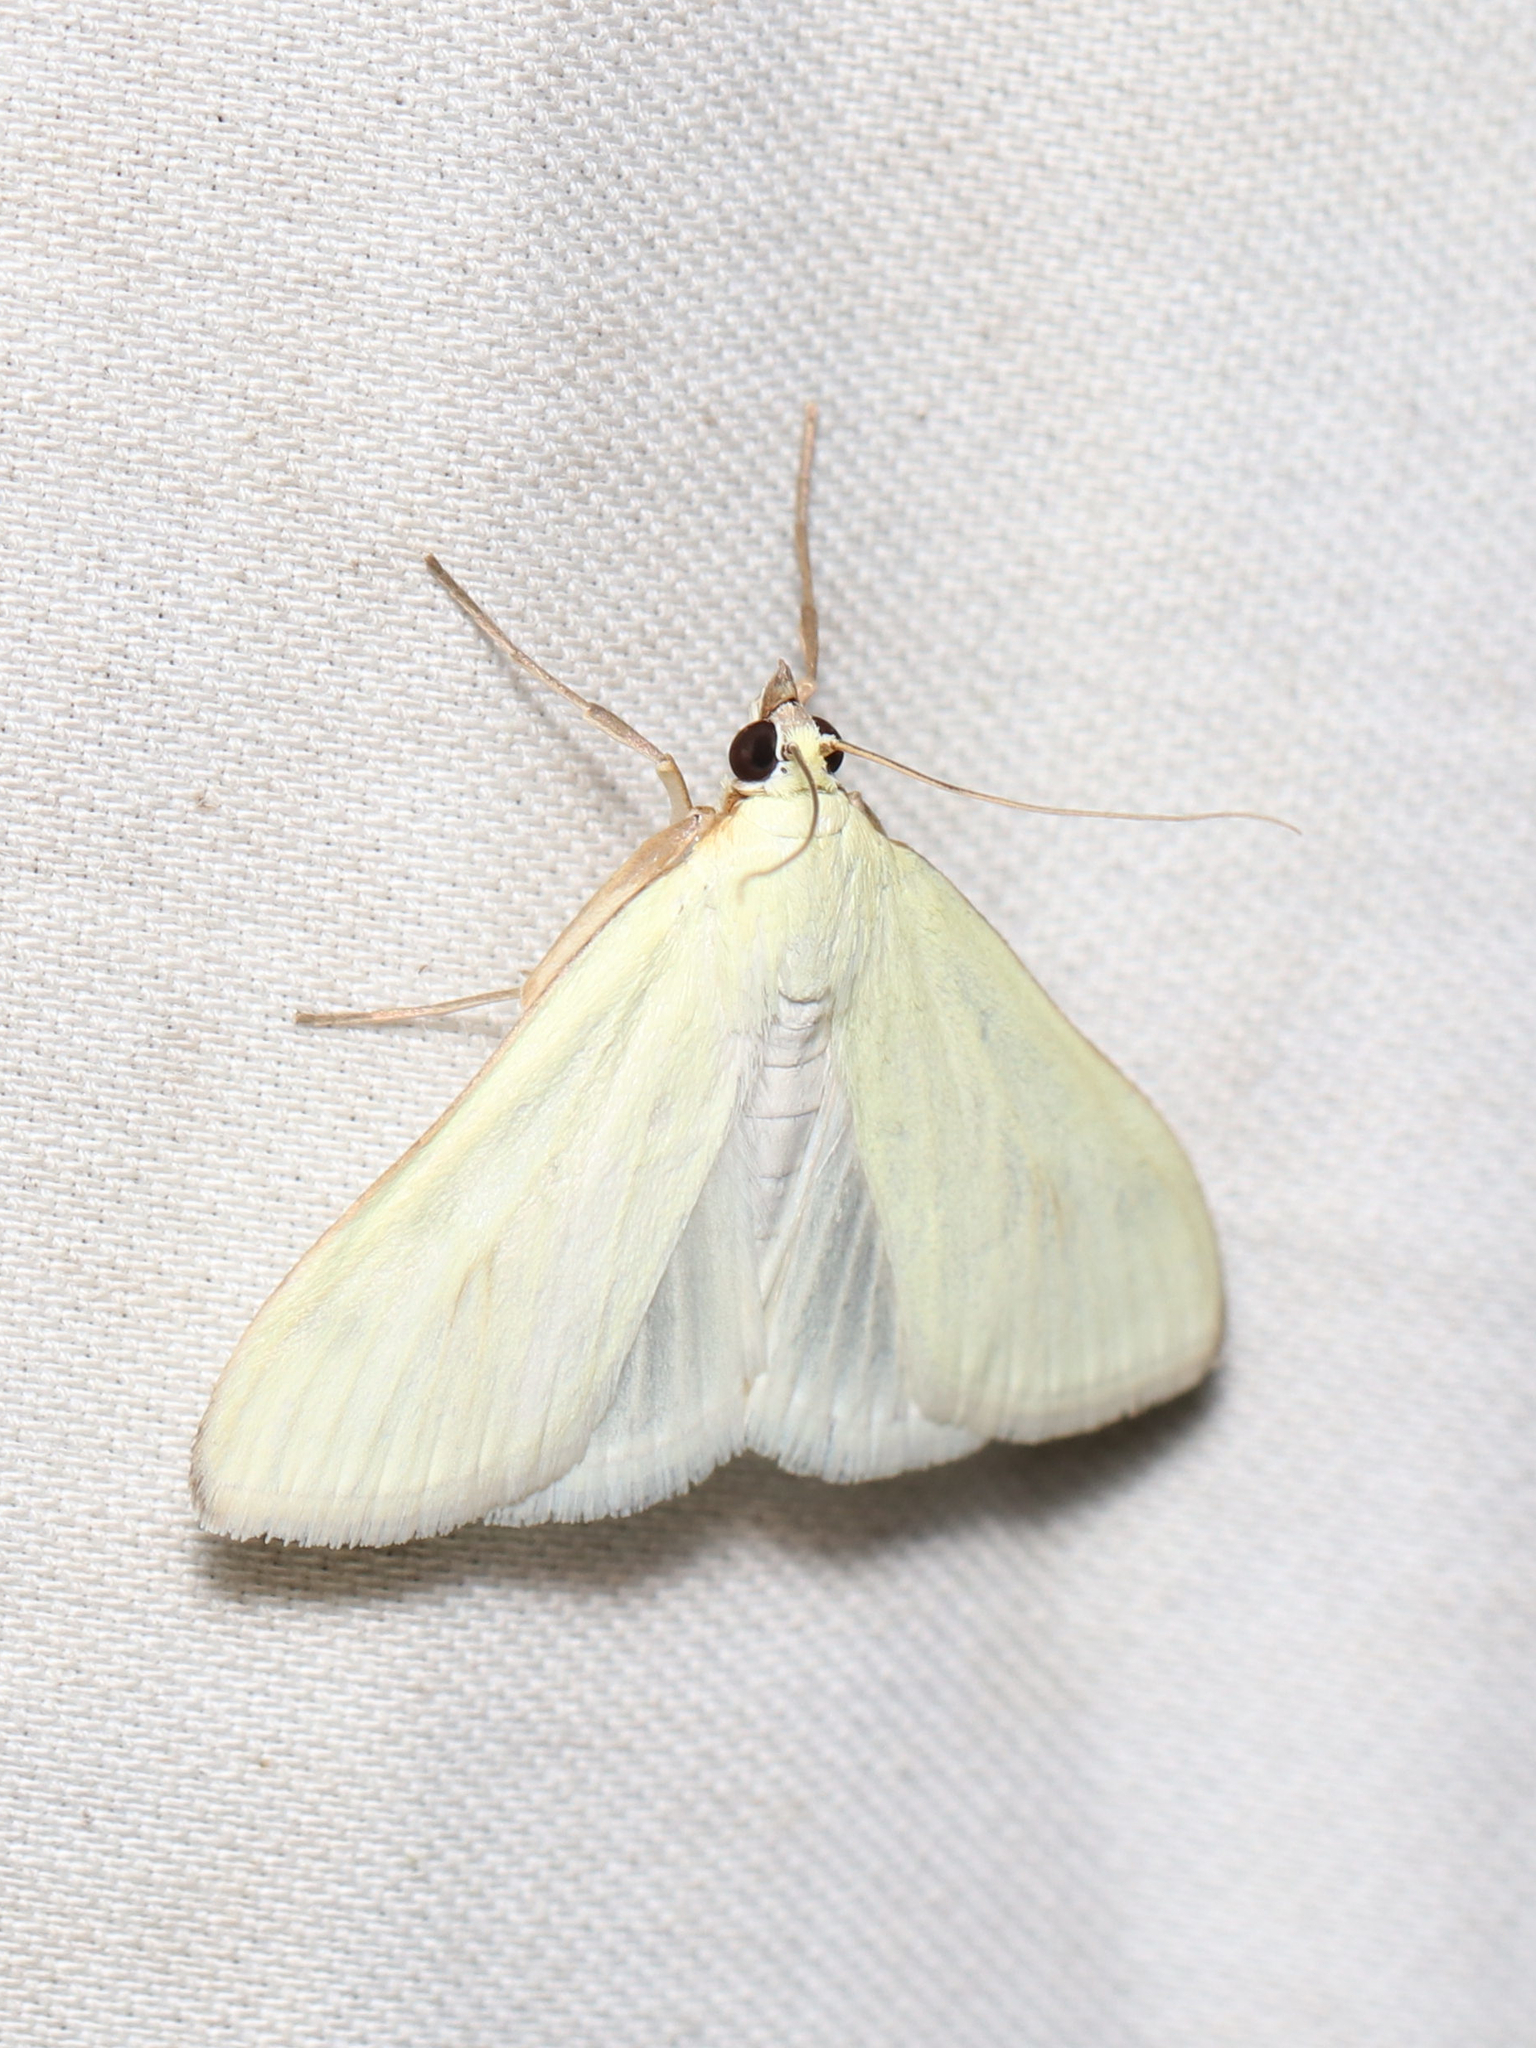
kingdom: Animalia
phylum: Arthropoda
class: Insecta
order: Lepidoptera
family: Crambidae
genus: Sitochroa
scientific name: Sitochroa palealis
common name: Greenish-yellow sitochroa moth
